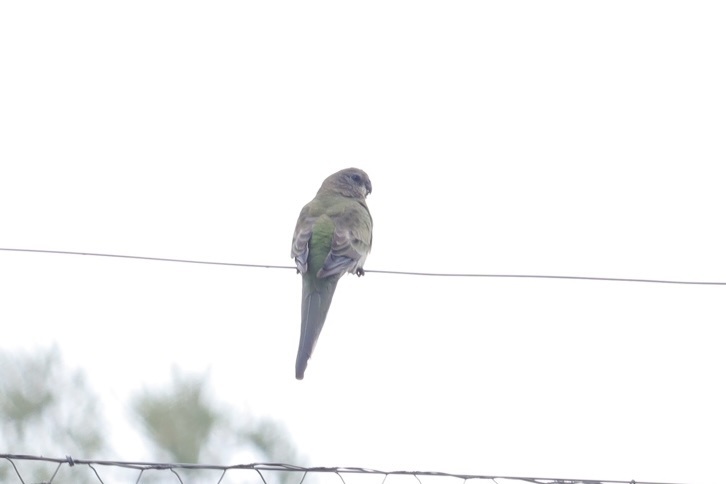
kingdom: Animalia
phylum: Chordata
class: Aves
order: Psittaciformes
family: Psittacidae
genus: Psephotus
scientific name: Psephotus haematonotus
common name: Red-rumped parrot
